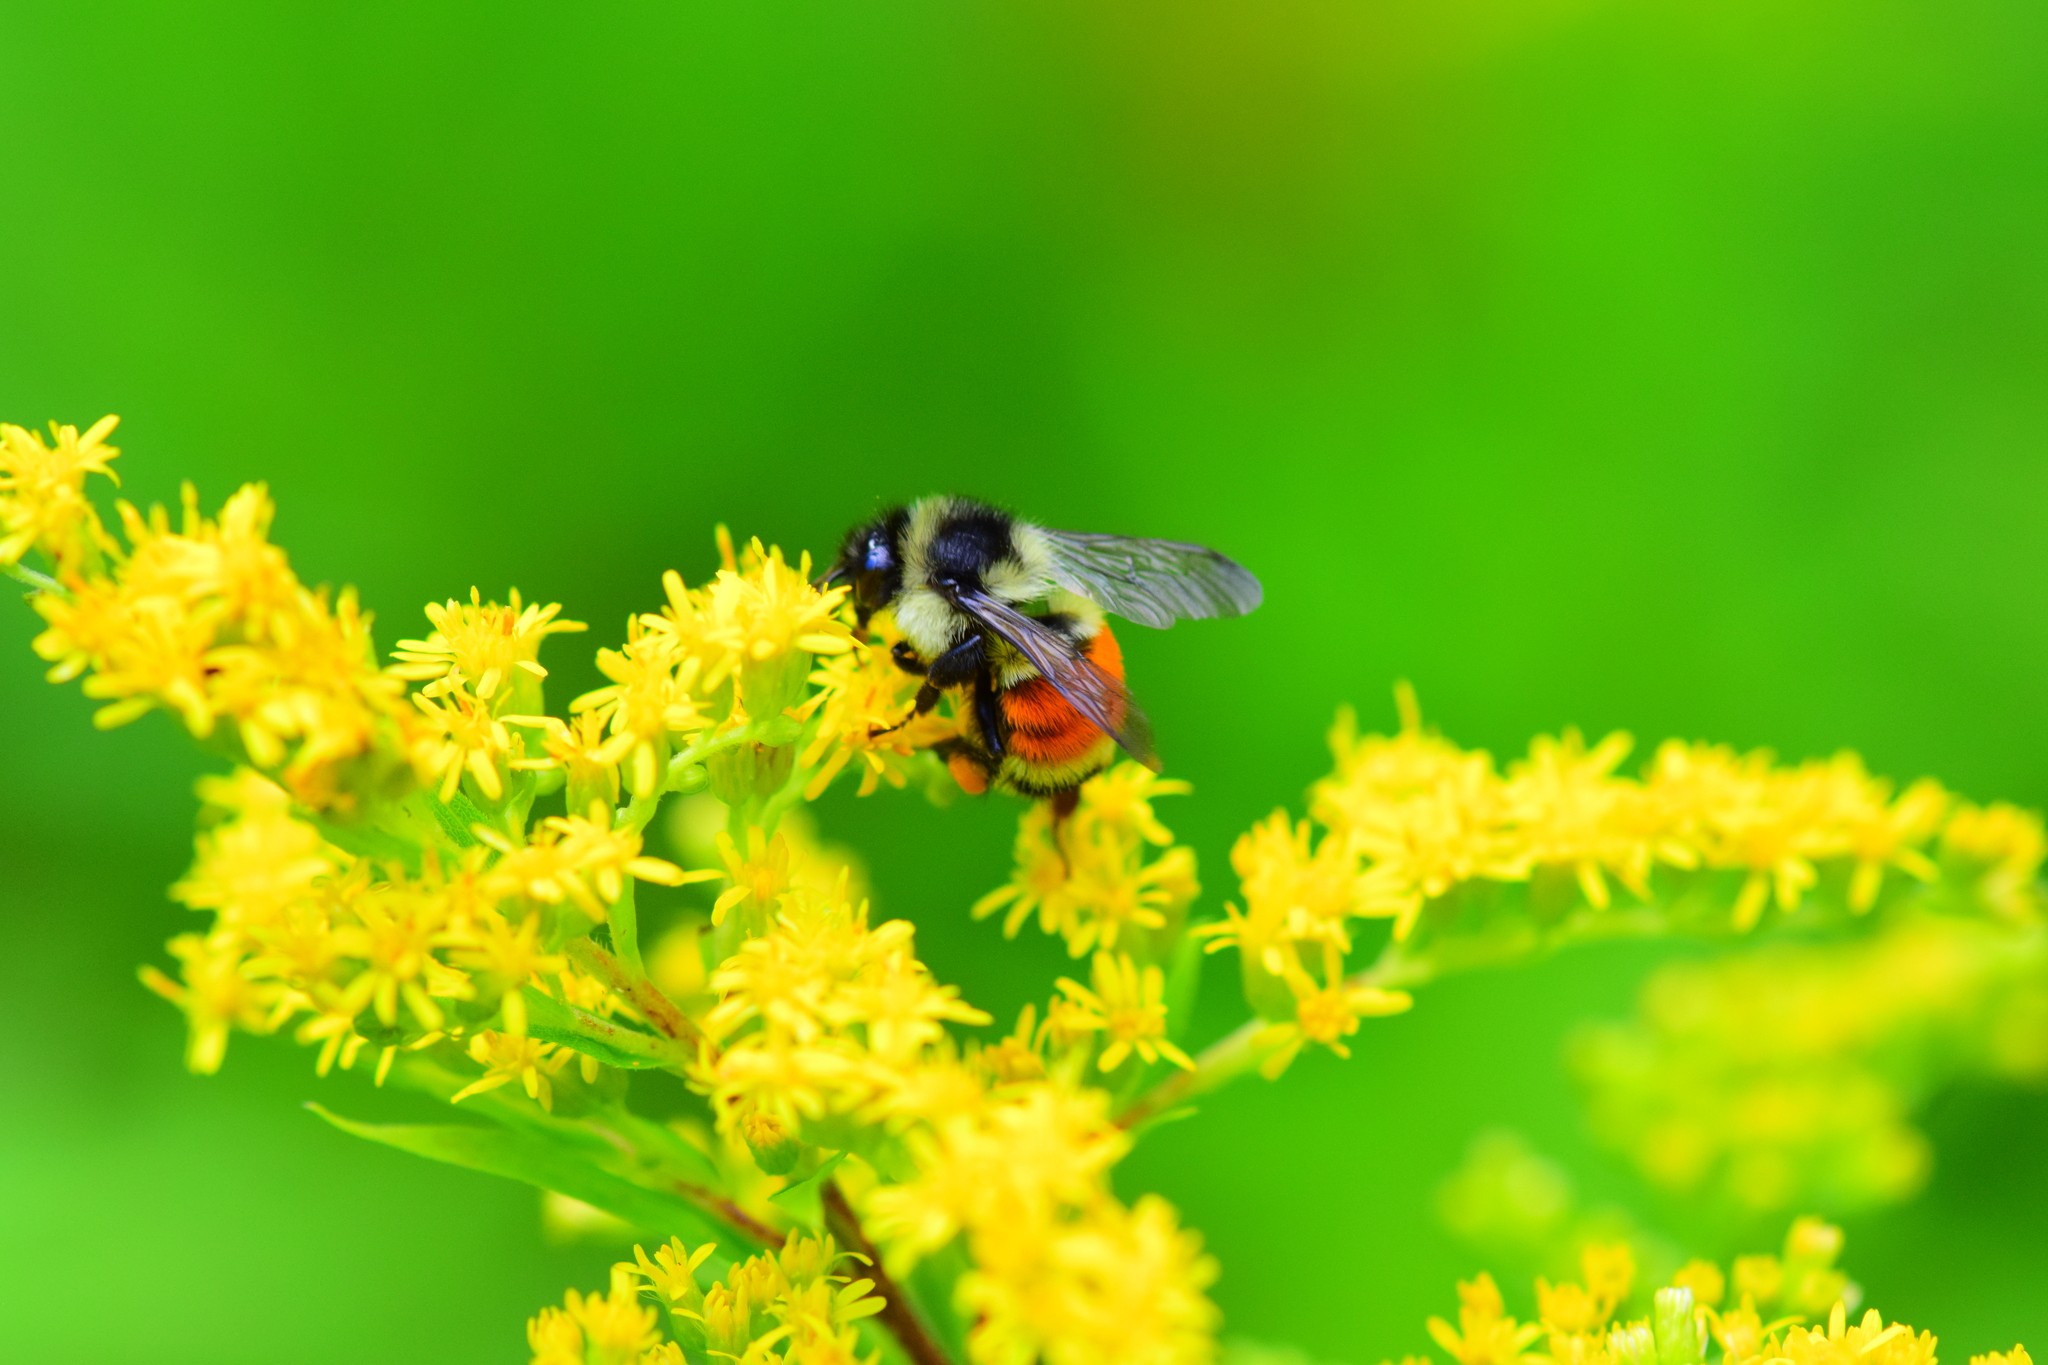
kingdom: Animalia
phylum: Arthropoda
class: Insecta
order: Hymenoptera
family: Apidae
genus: Bombus
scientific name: Bombus ternarius
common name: Tri-colored bumble bee
